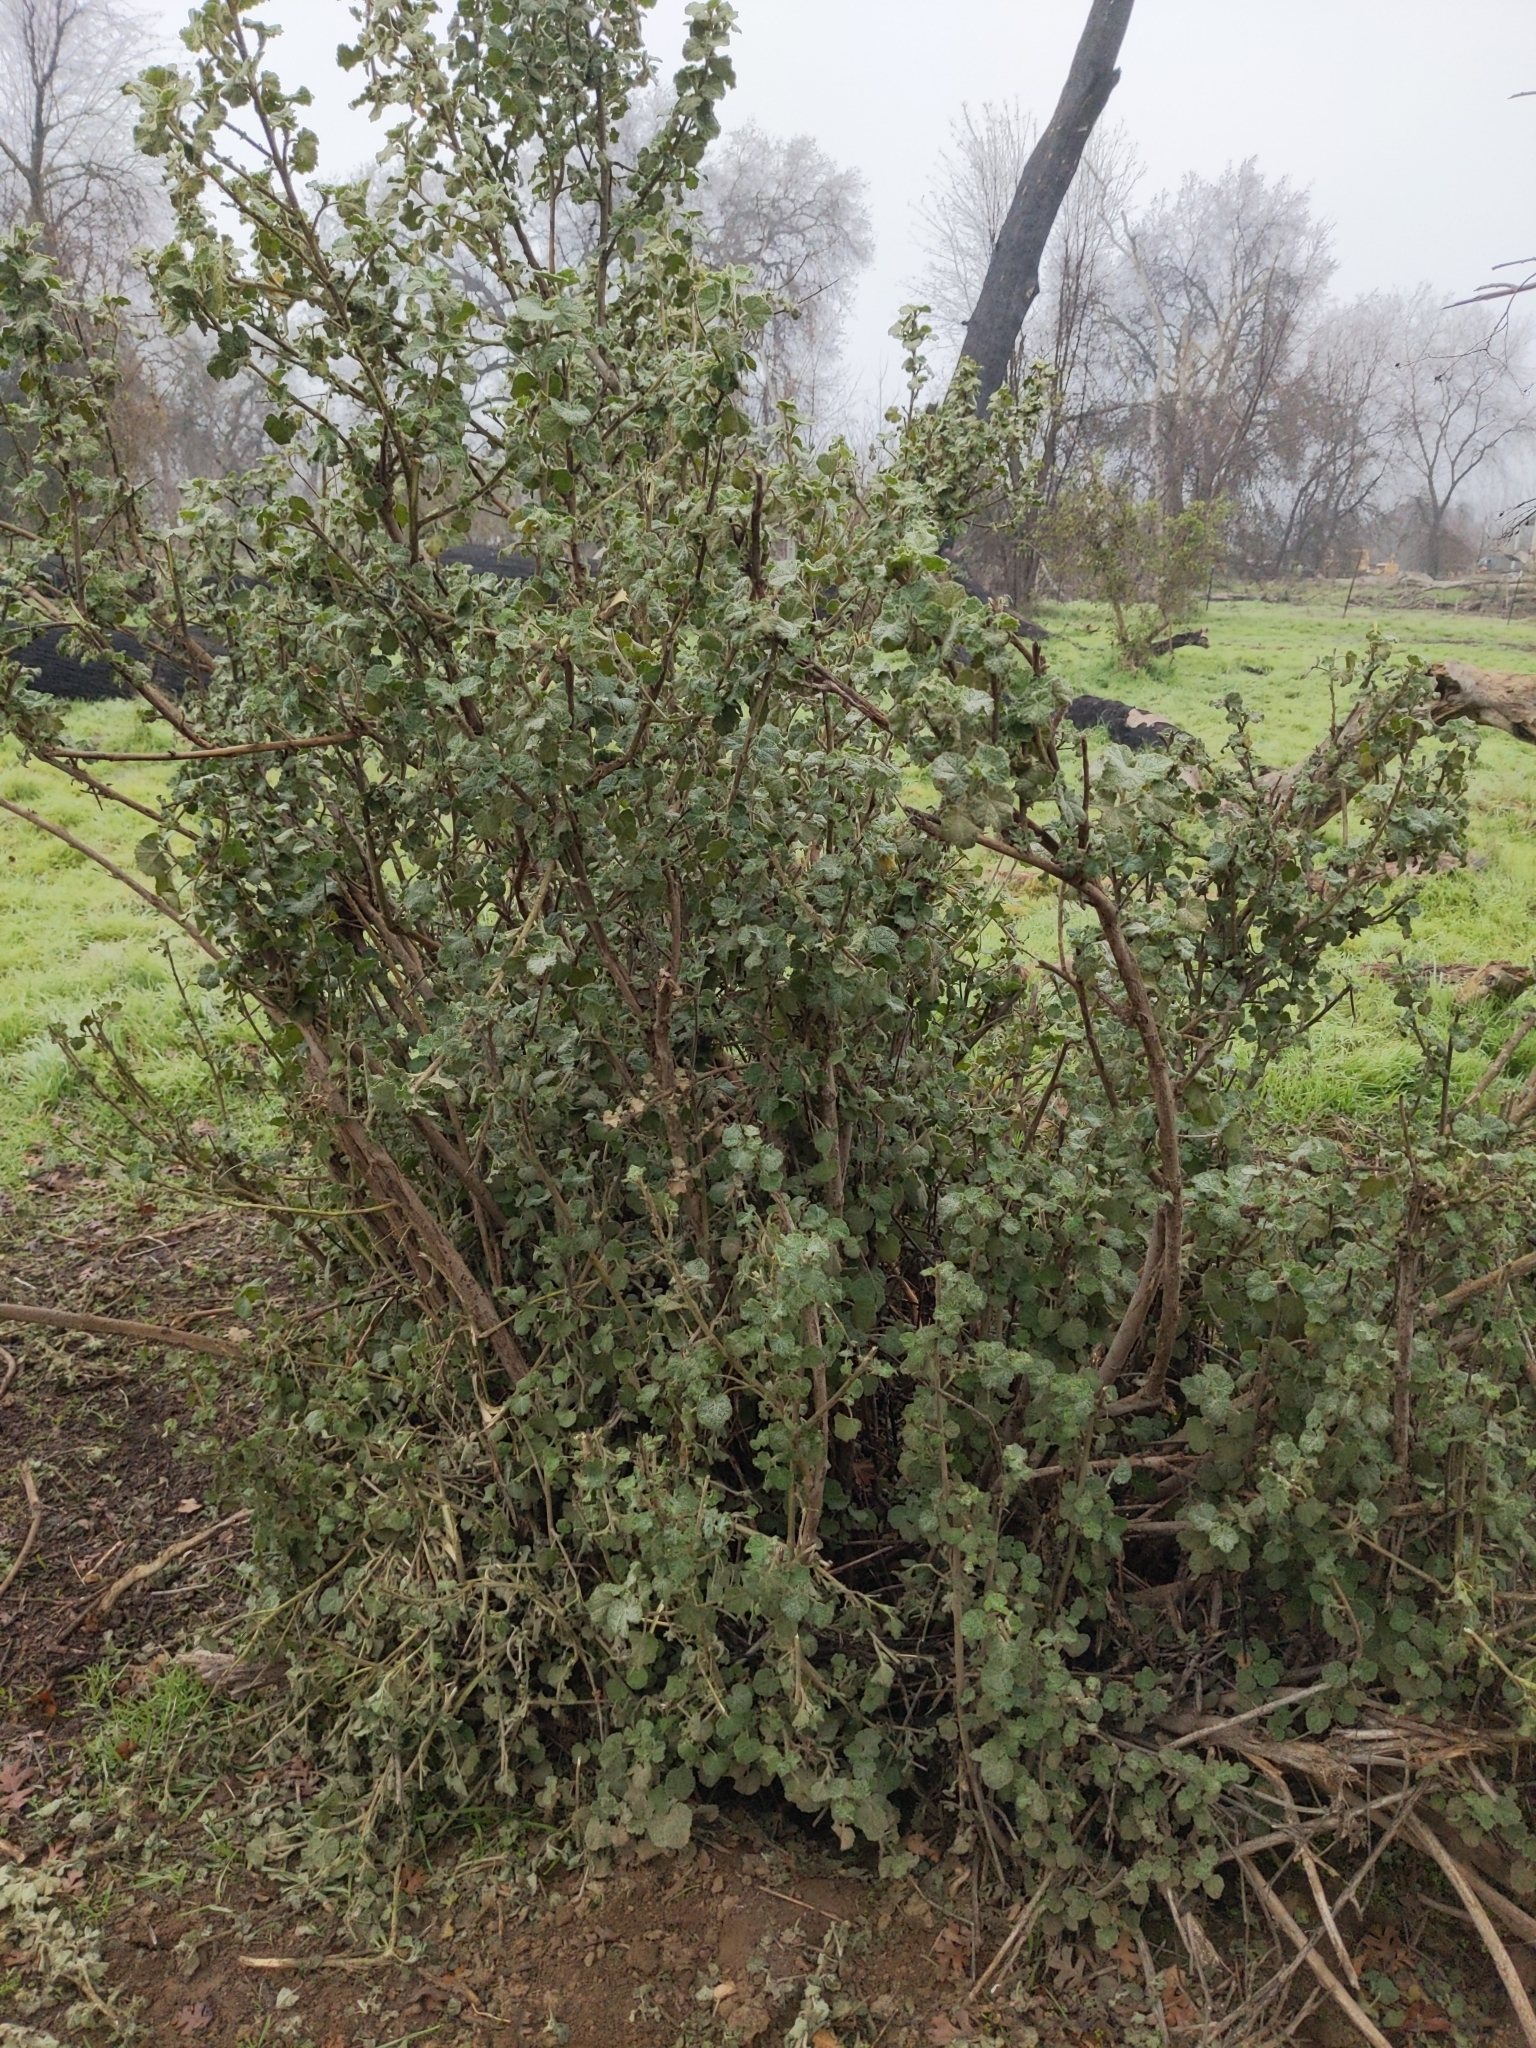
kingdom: Plantae
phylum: Tracheophyta
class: Magnoliopsida
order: Malvales
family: Malvaceae
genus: Malacothamnus
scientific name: Malacothamnus fremontii
